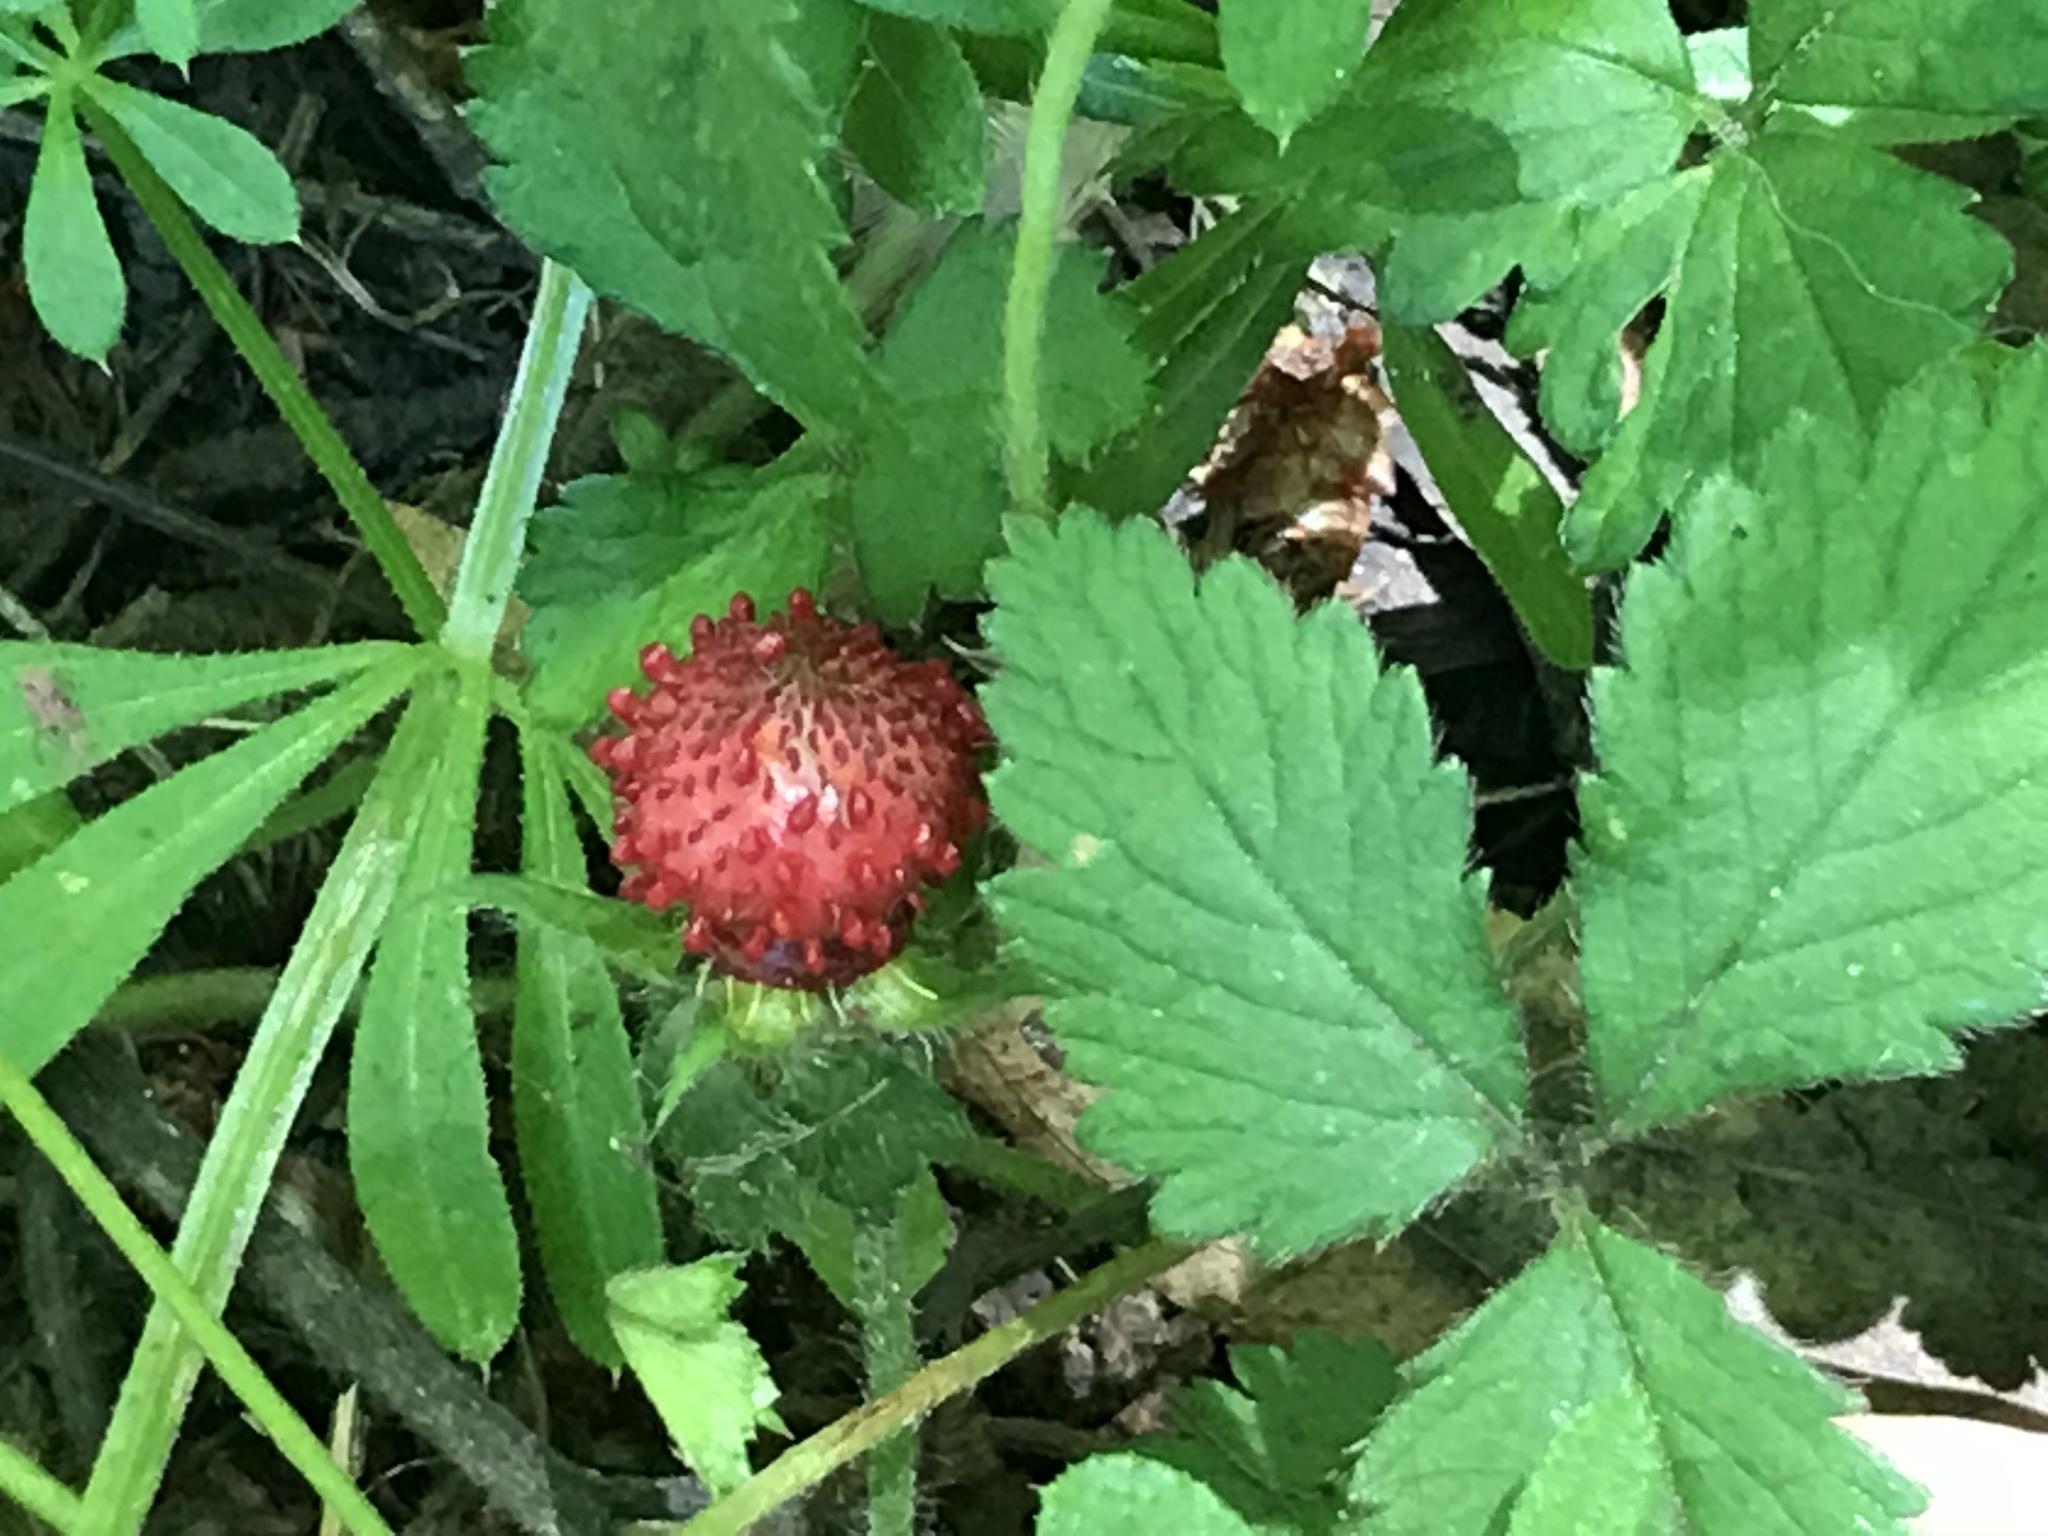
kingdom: Plantae
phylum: Tracheophyta
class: Magnoliopsida
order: Rosales
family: Rosaceae
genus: Potentilla
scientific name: Potentilla indica
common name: Yellow-flowered strawberry
